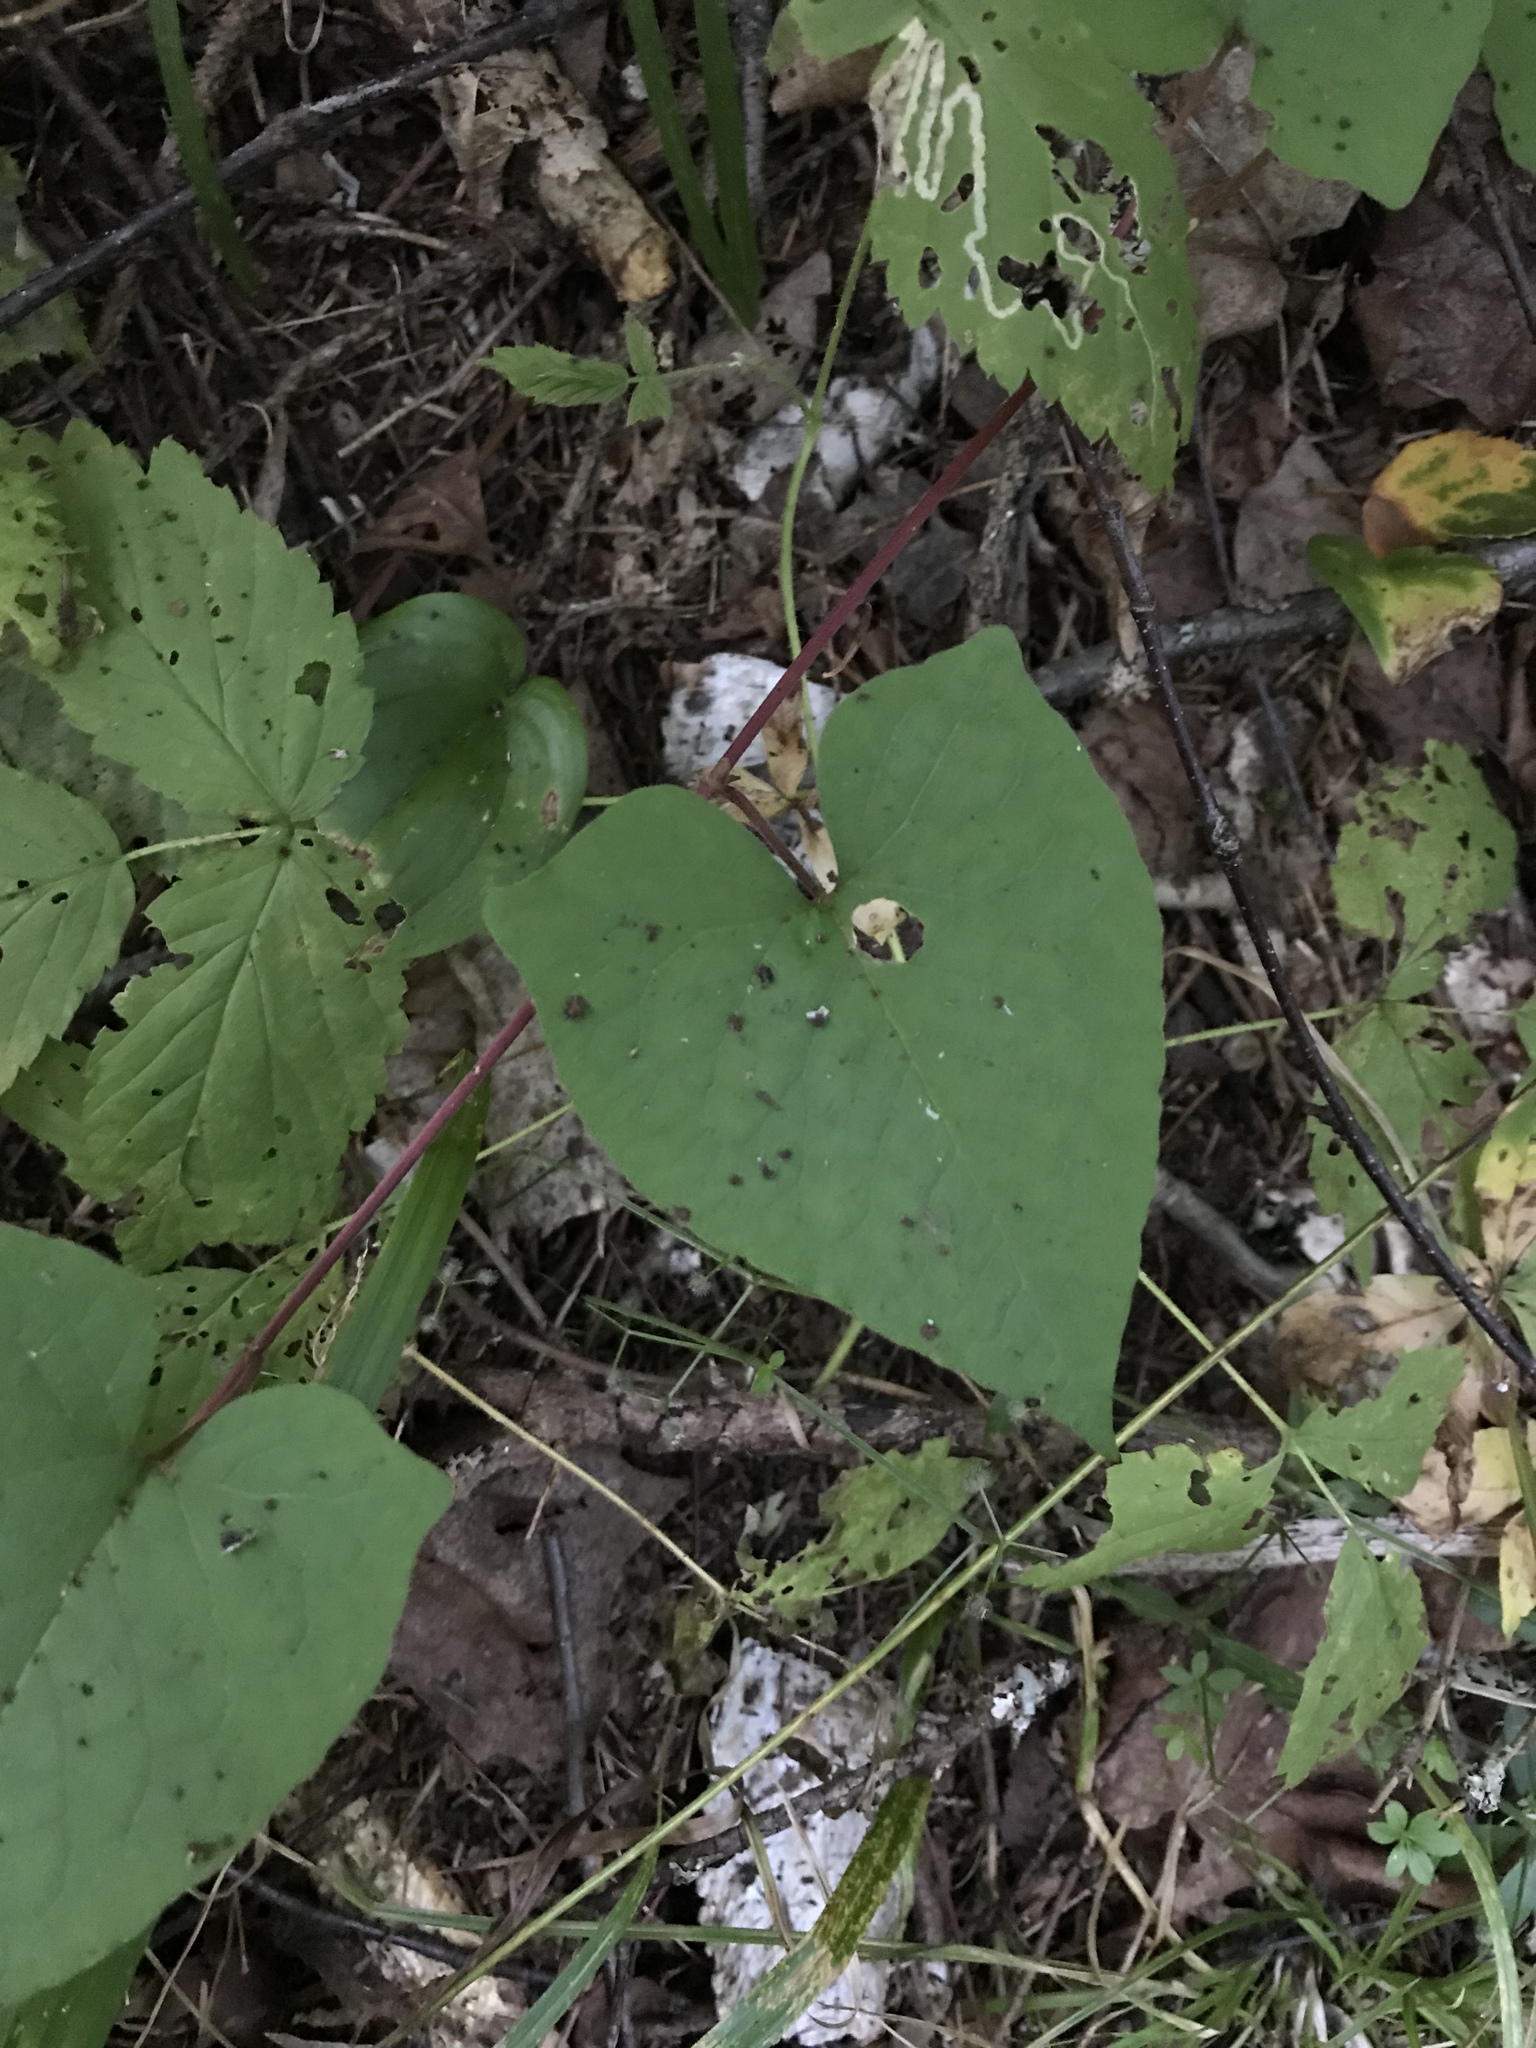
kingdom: Plantae
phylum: Tracheophyta
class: Magnoliopsida
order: Caryophyllales
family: Polygonaceae
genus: Parogonum
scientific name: Parogonum ciliinode
